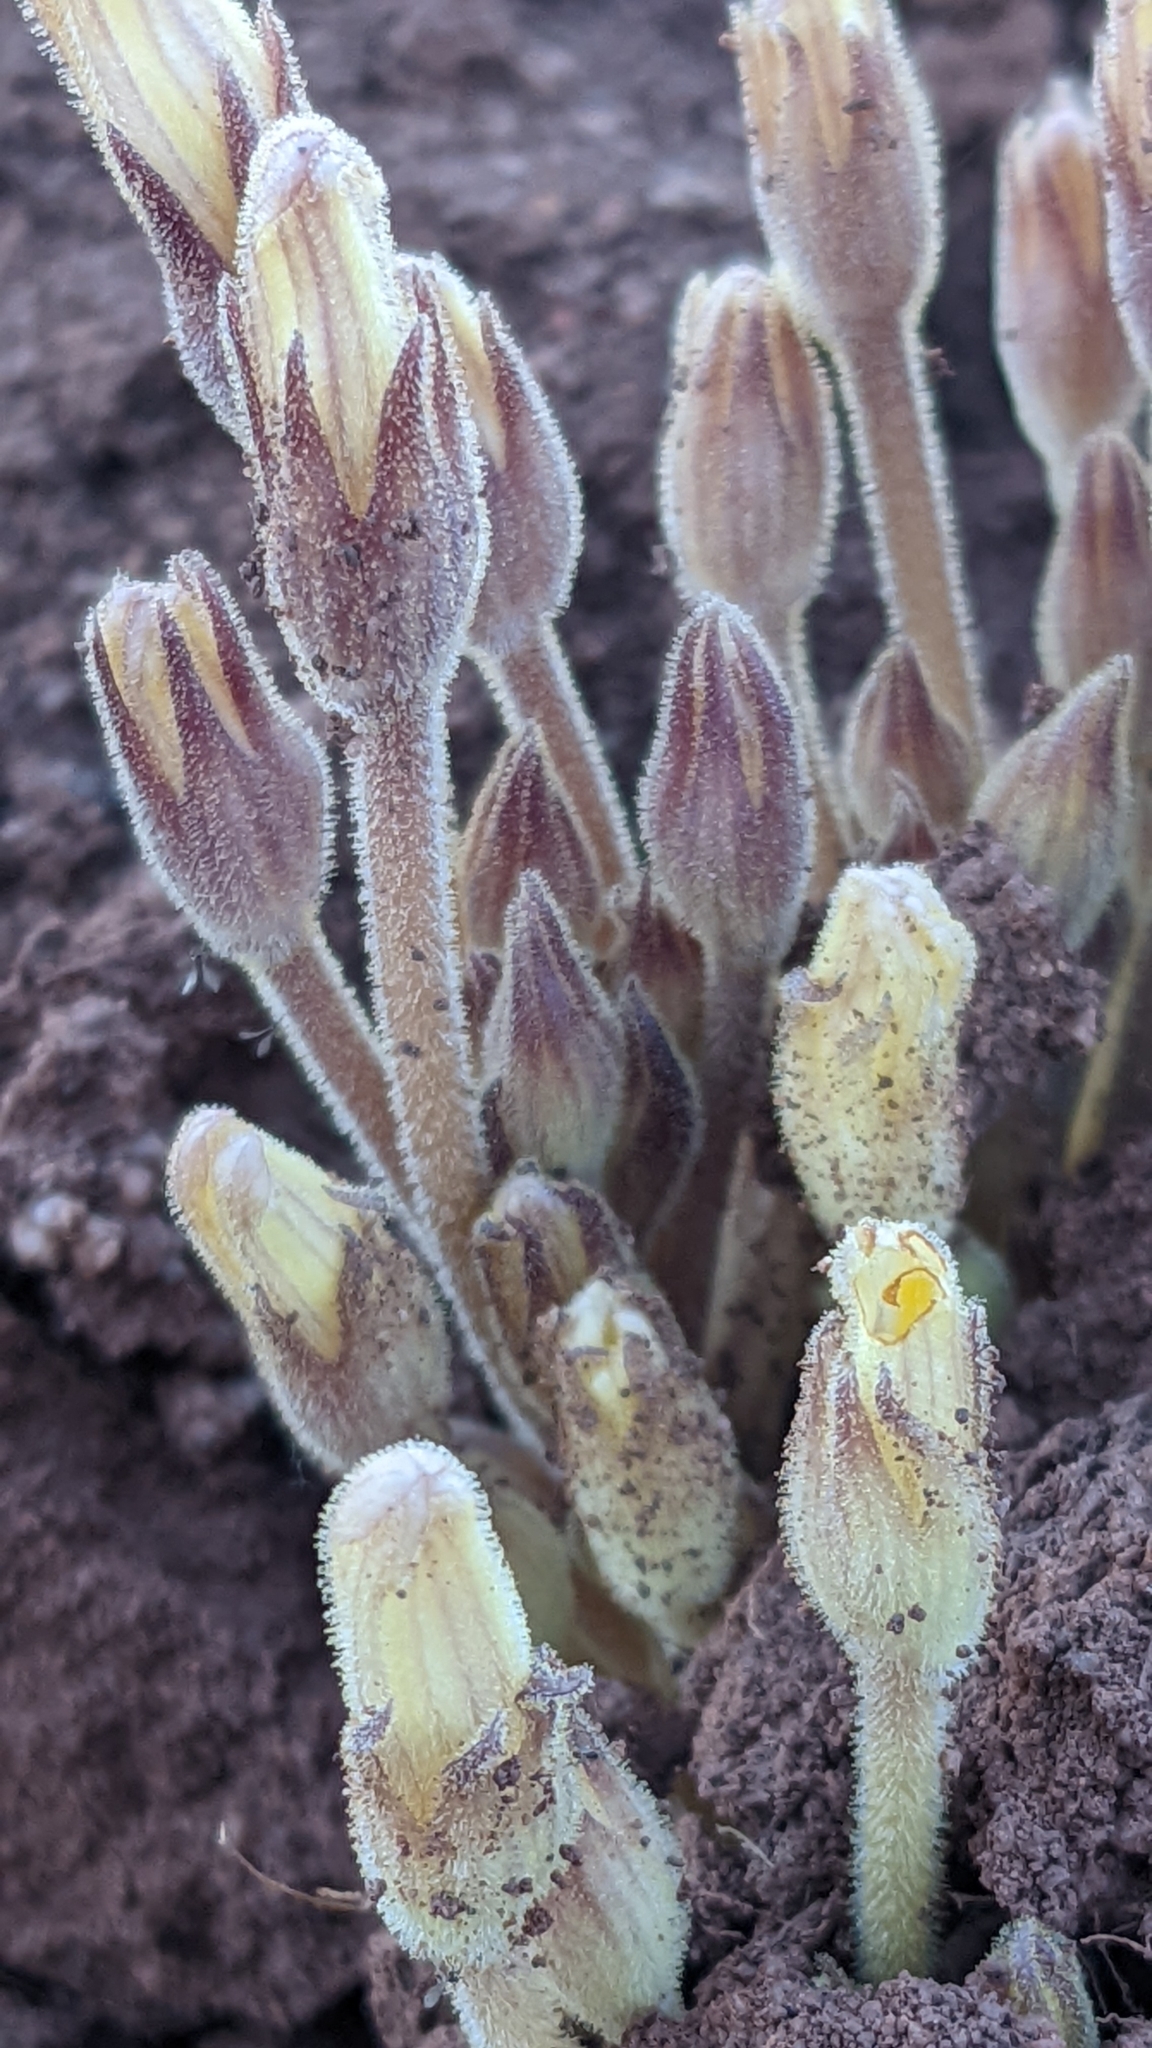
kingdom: Plantae
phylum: Tracheophyta
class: Magnoliopsida
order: Lamiales
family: Orobanchaceae
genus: Aphyllon
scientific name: Aphyllon fasciculatum
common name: Clustered broomrape
